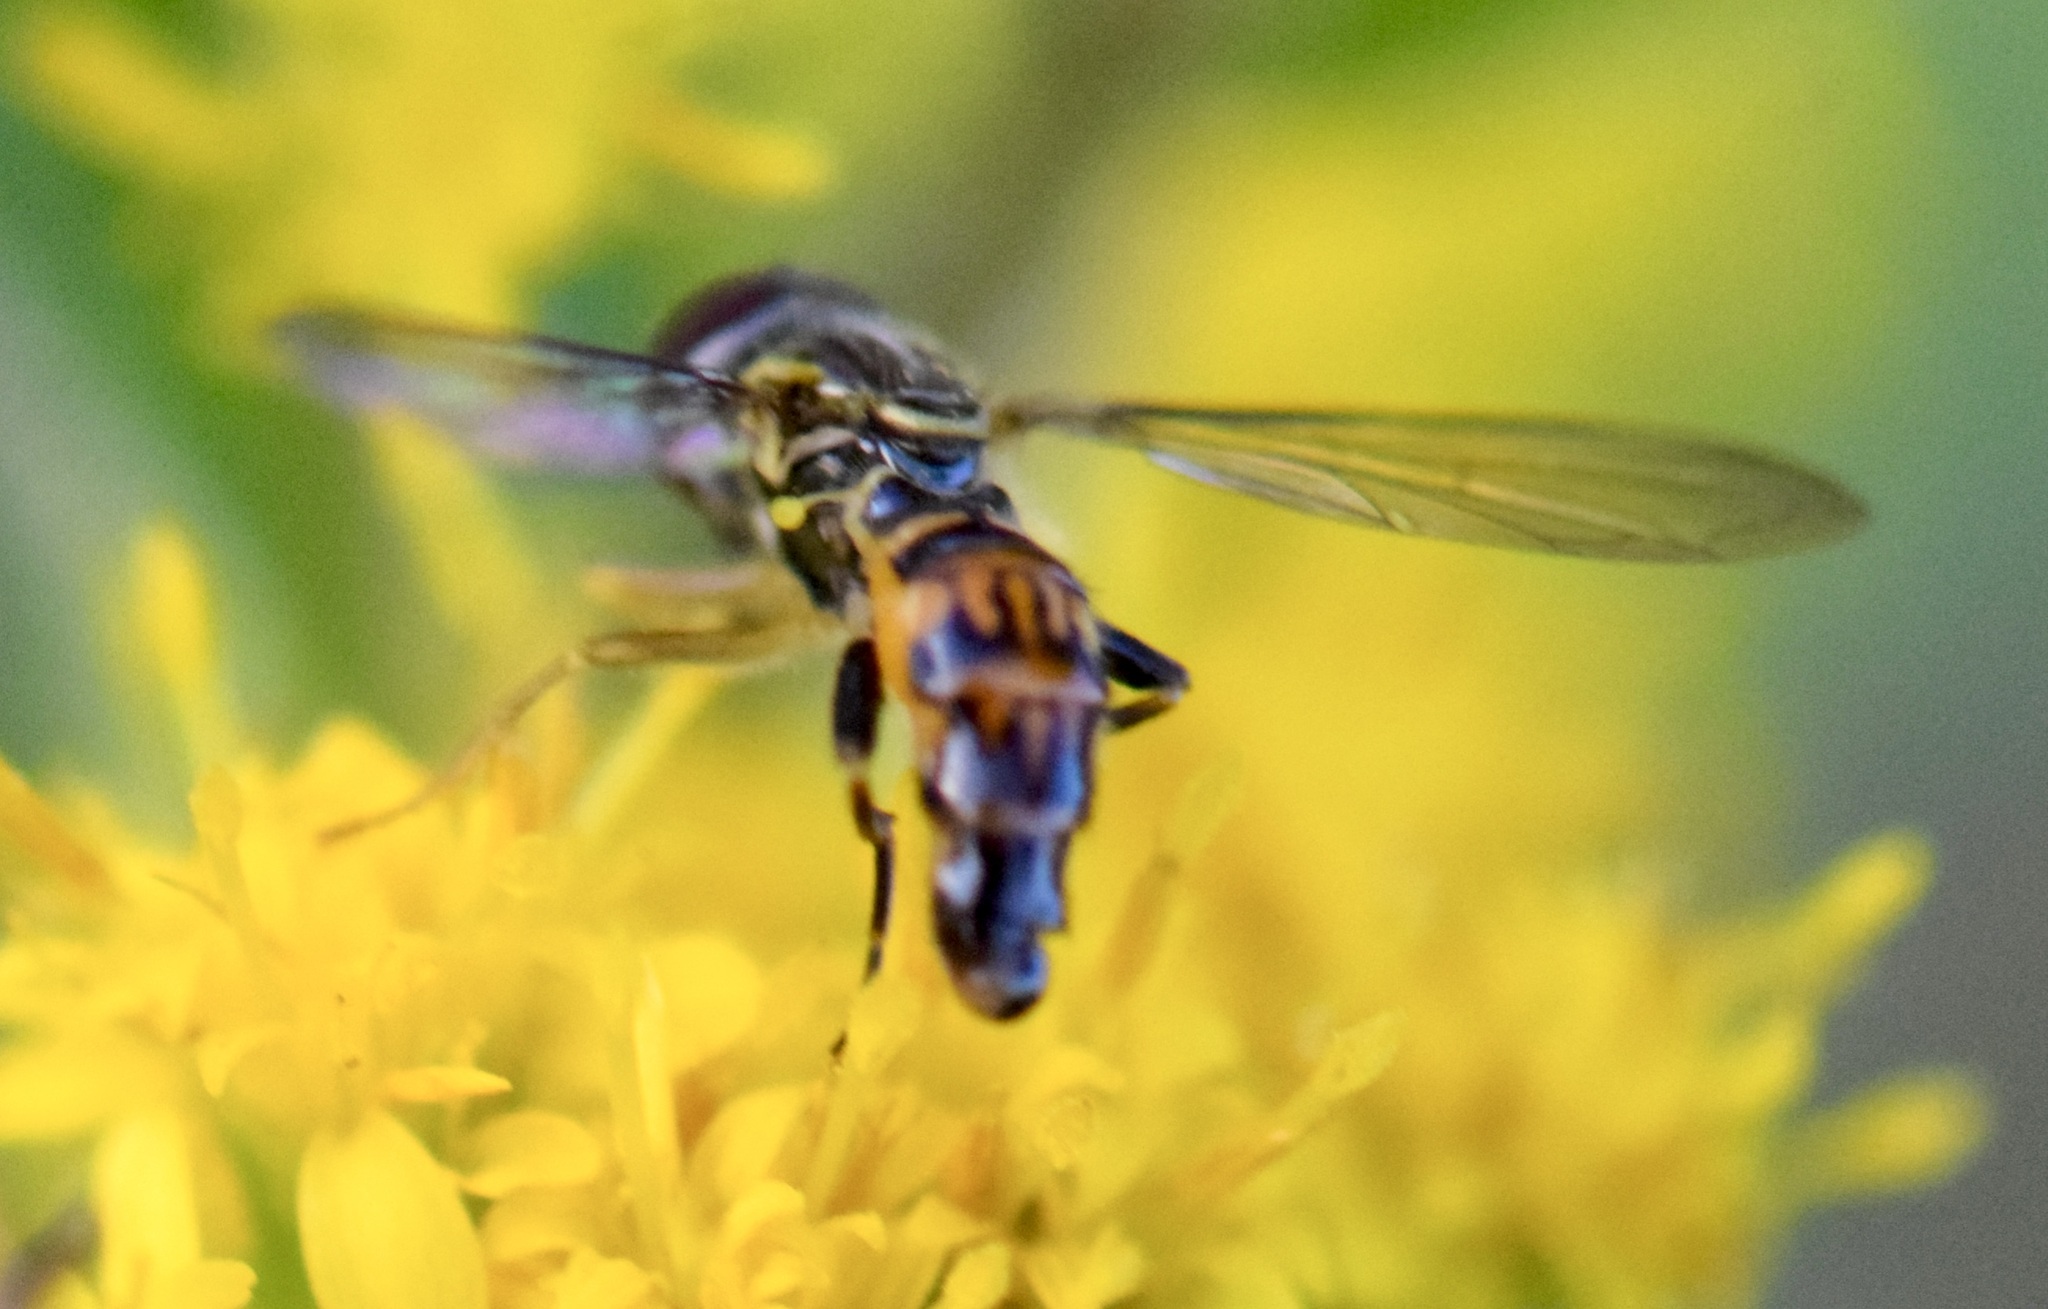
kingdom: Animalia
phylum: Arthropoda
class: Insecta
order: Diptera
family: Syrphidae
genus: Toxomerus
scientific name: Toxomerus geminatus
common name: Eastern calligrapher
